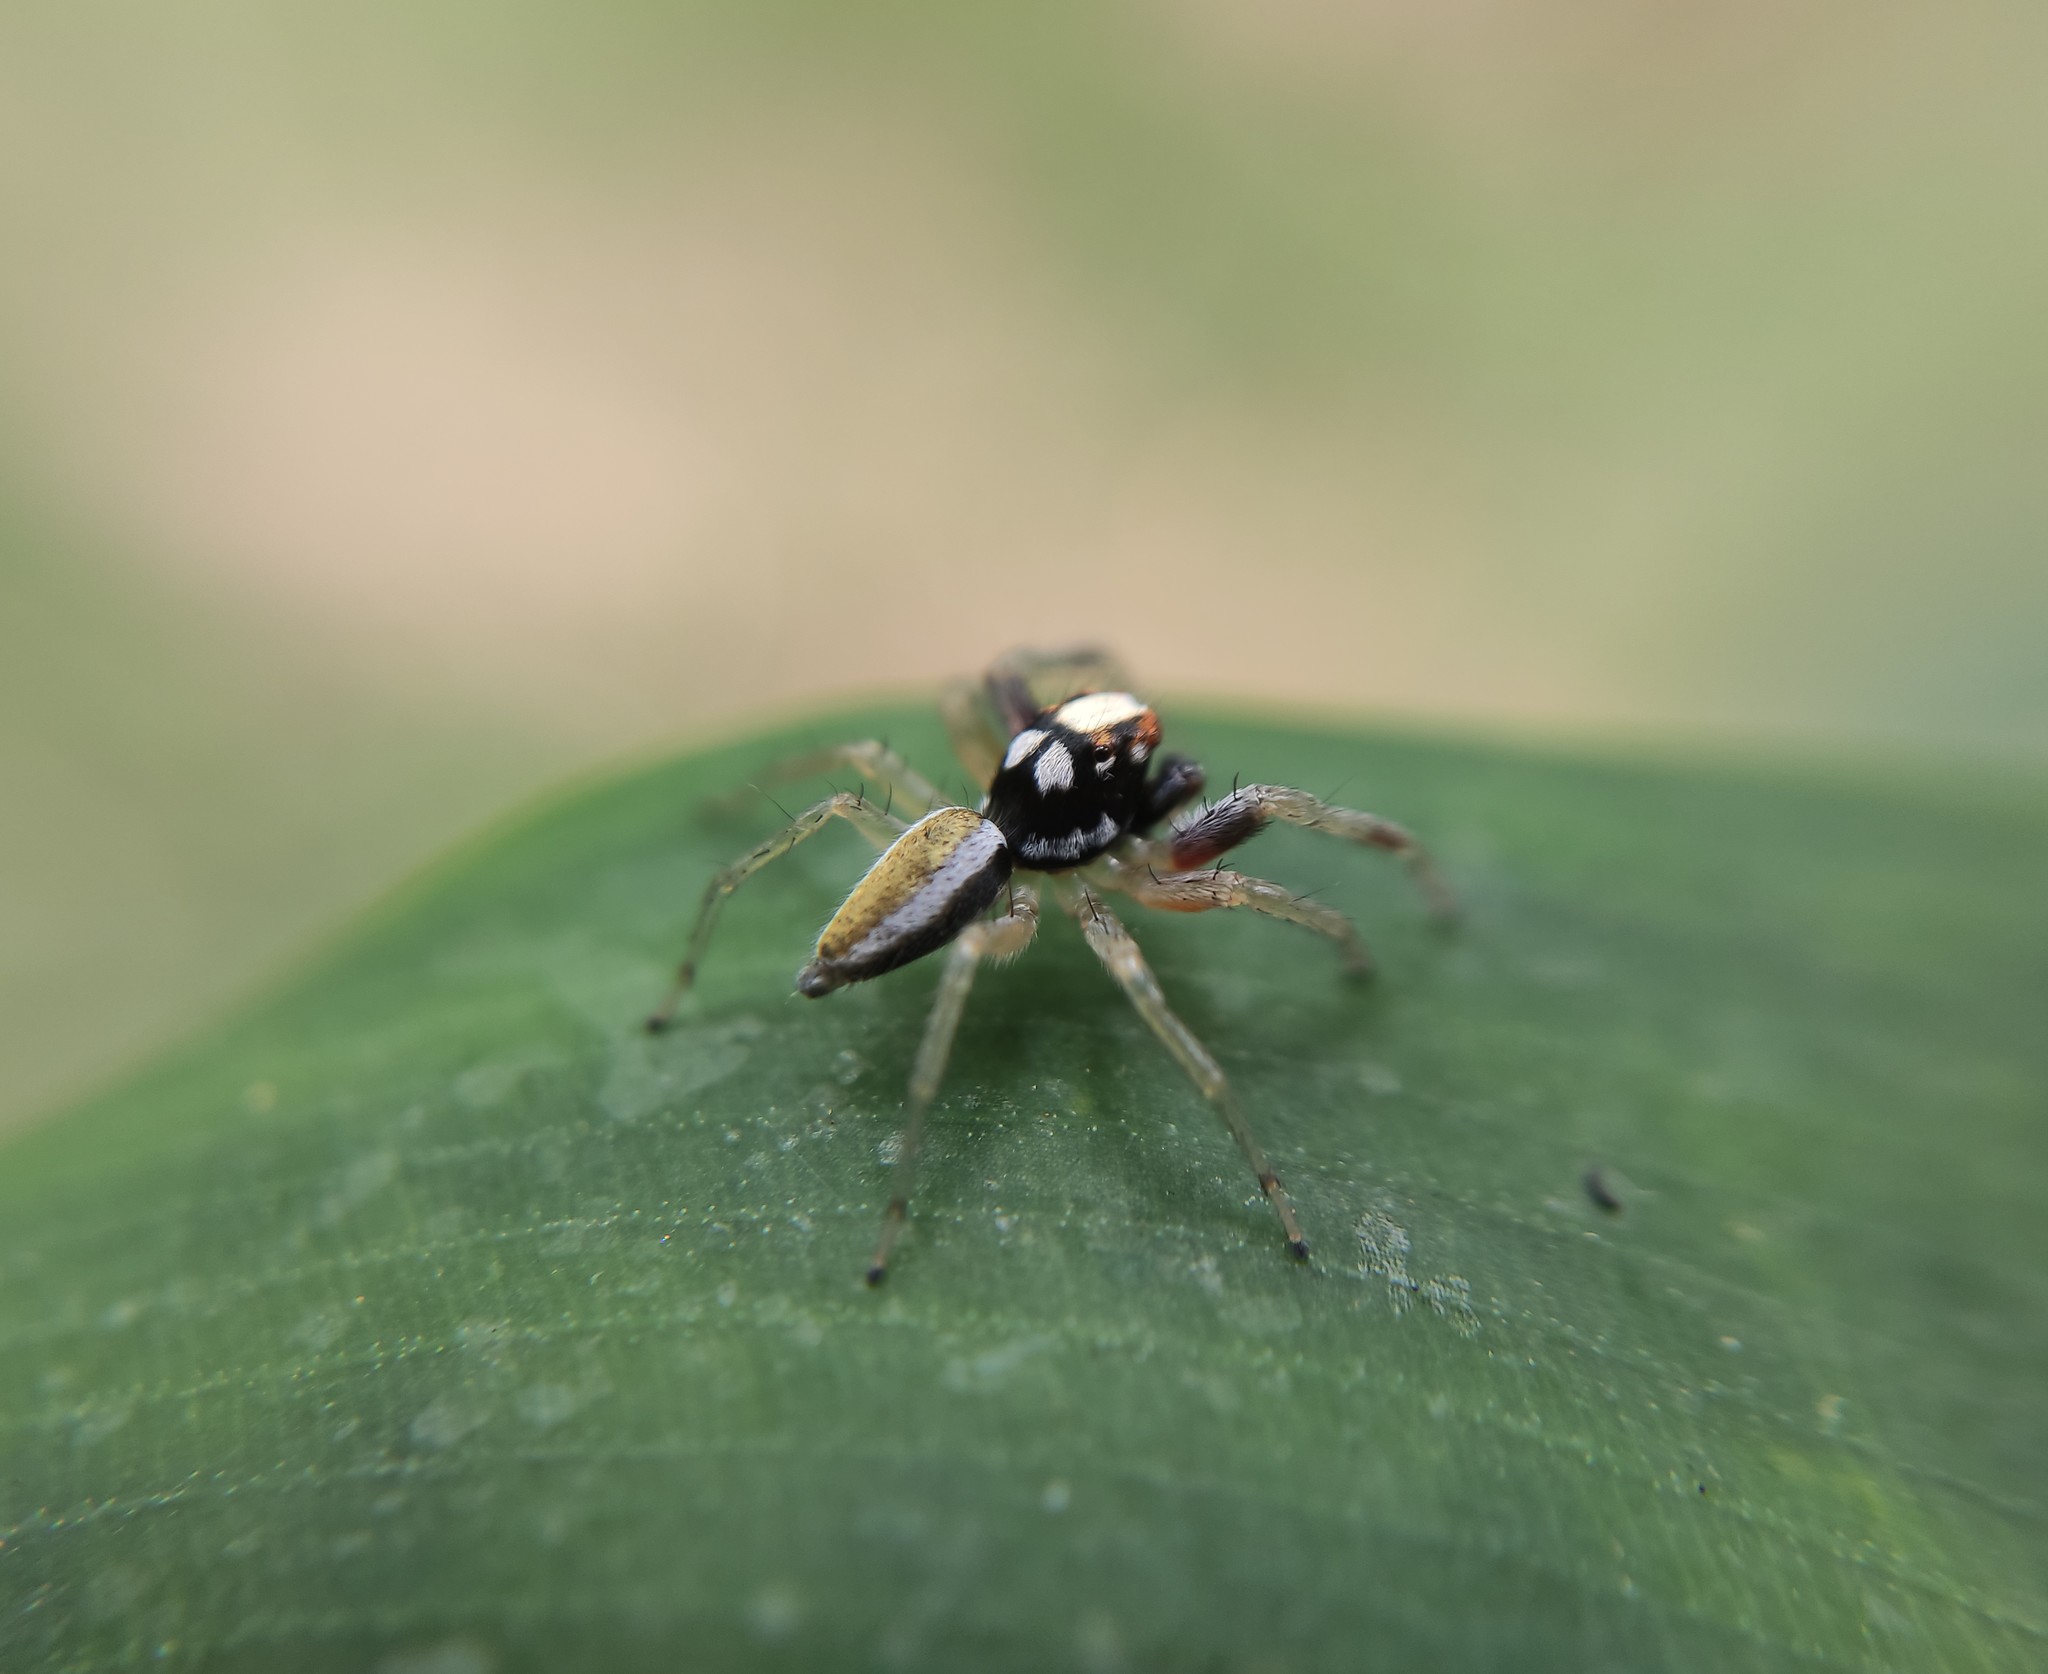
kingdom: Animalia
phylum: Arthropoda
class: Arachnida
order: Araneae
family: Salticidae
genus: Chira
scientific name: Chira spinosa
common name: Jumping spiders
